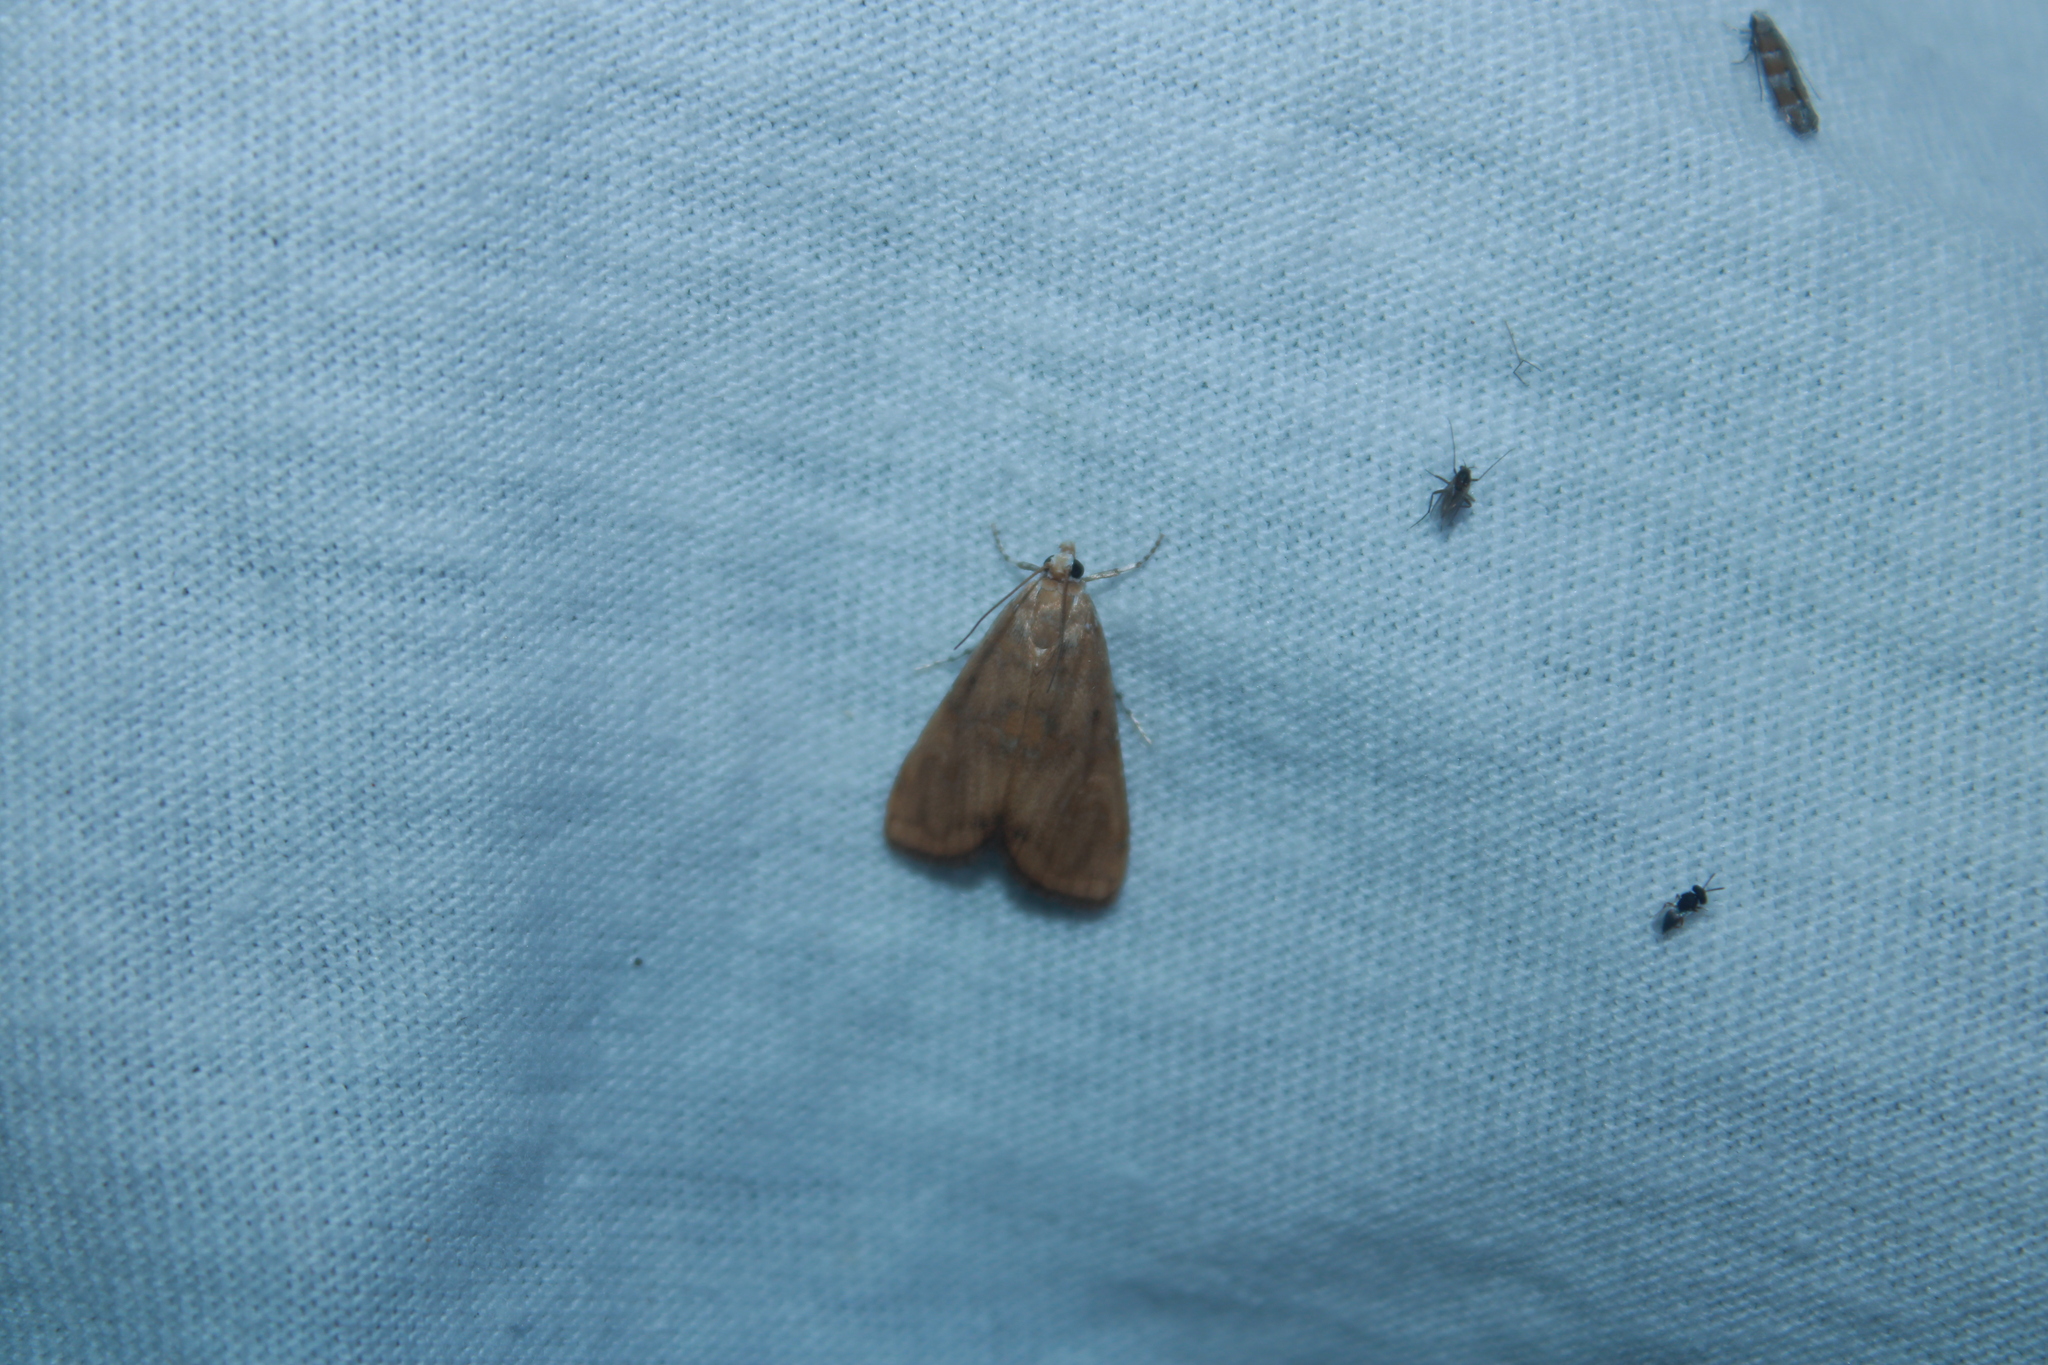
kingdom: Animalia
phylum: Arthropoda
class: Insecta
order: Lepidoptera
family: Crambidae
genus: Elophila
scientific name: Elophila gyralis
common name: Waterlily borer moth
